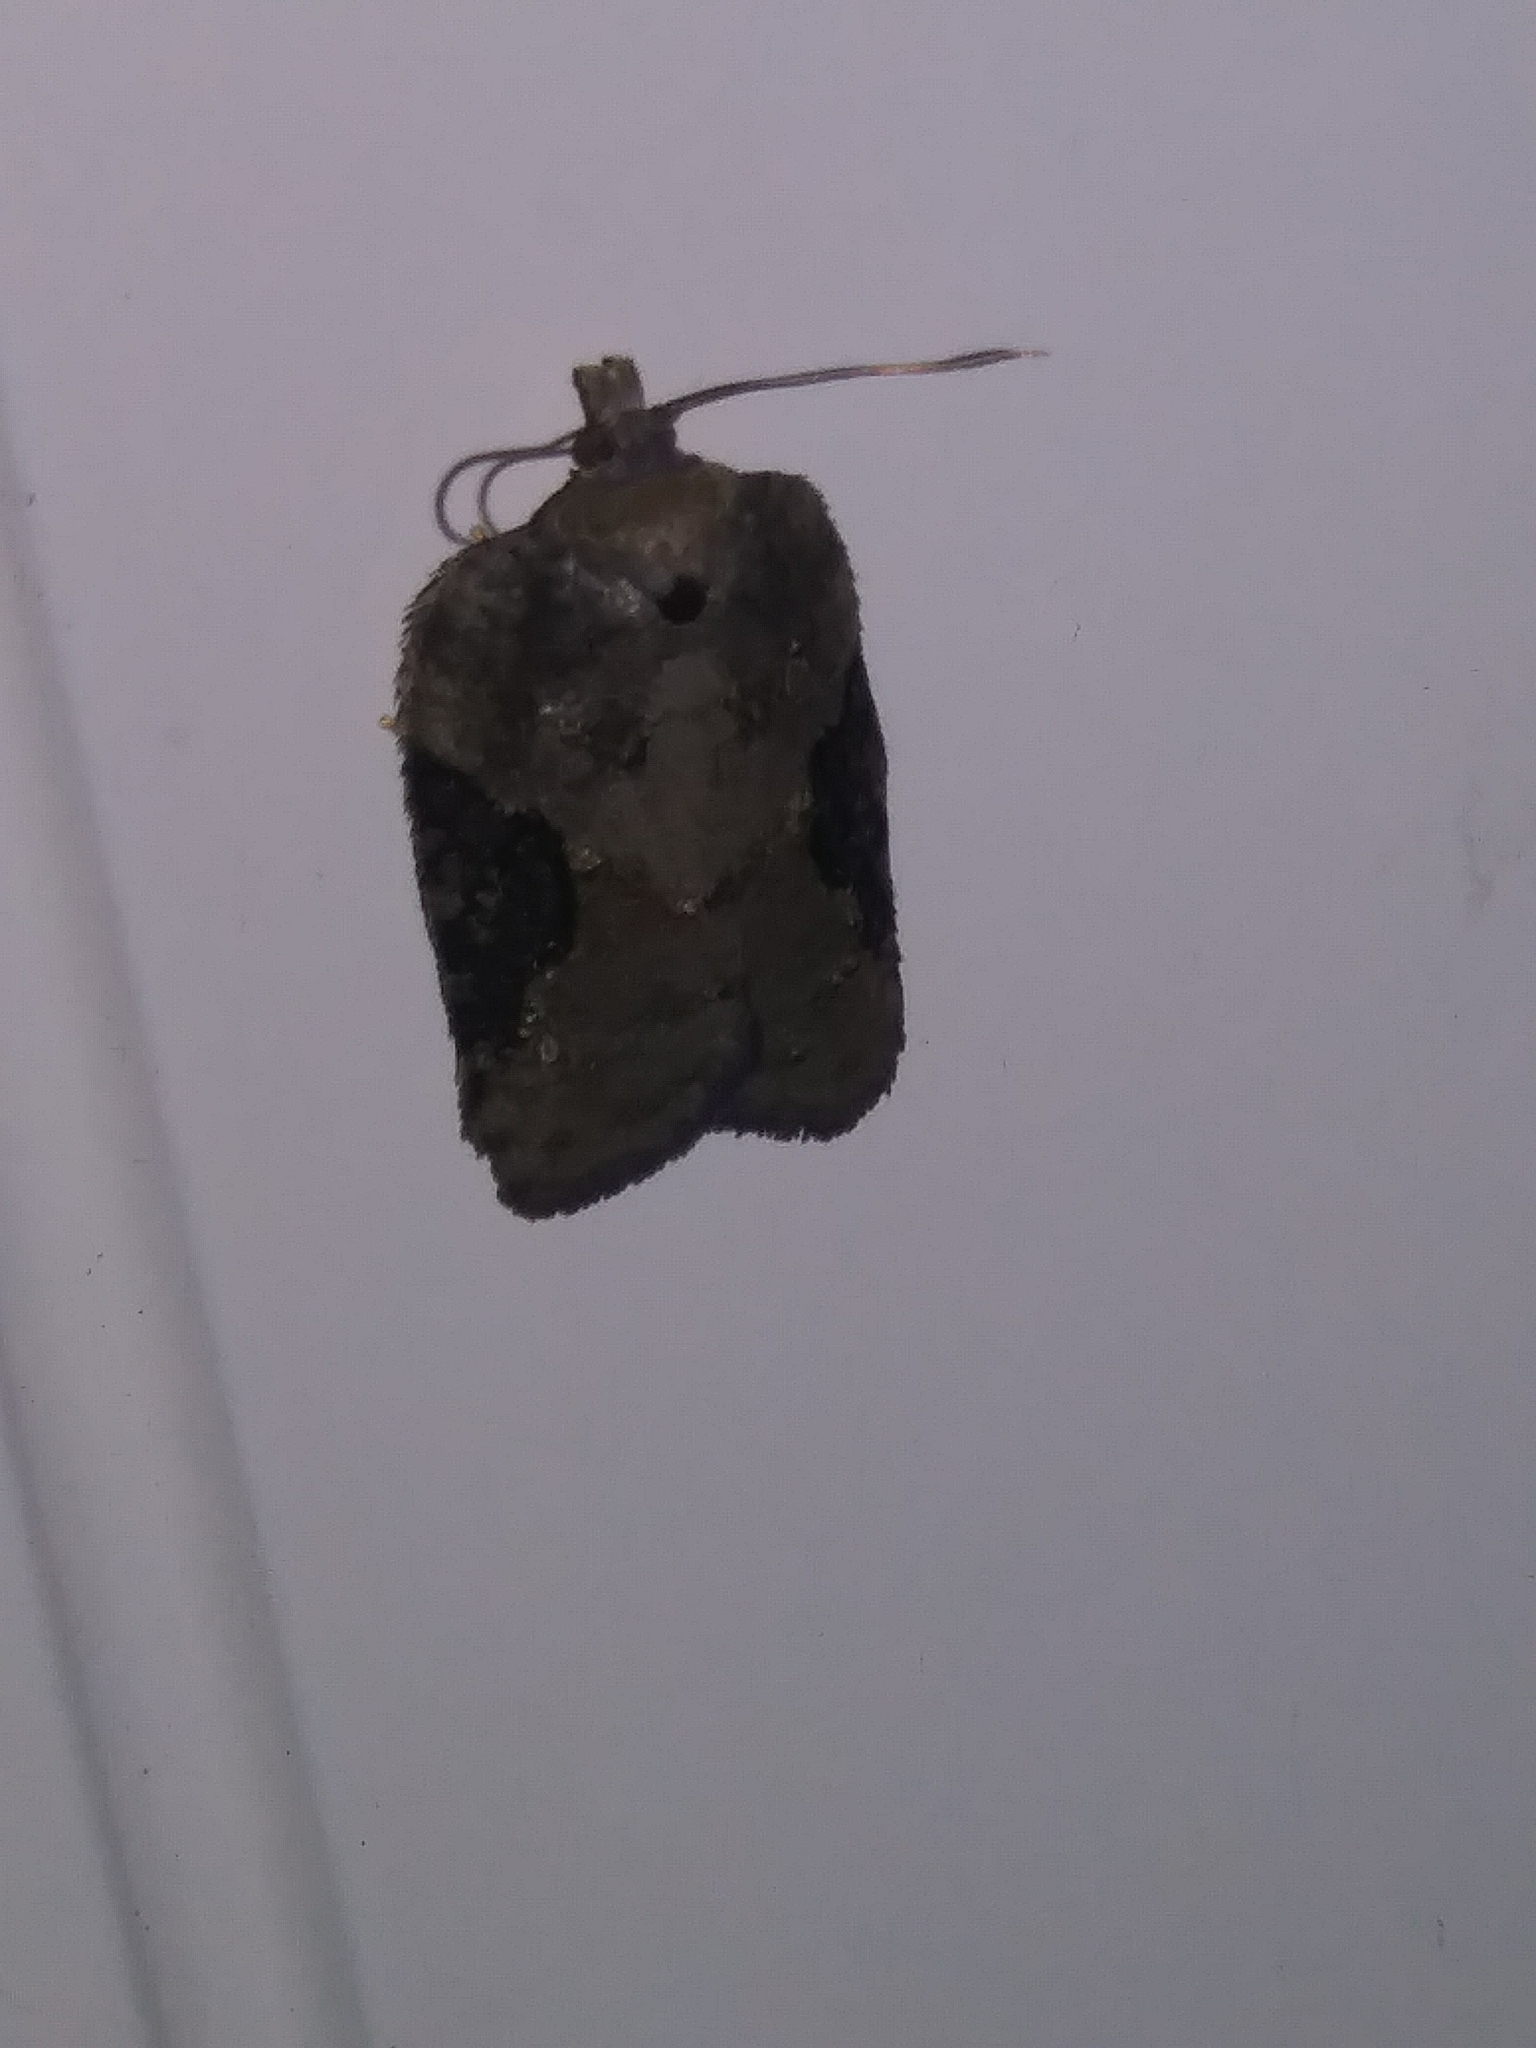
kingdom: Animalia
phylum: Arthropoda
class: Insecta
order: Lepidoptera
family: Tortricidae
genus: Acleris
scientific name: Acleris chalybeana
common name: Lesser maple leafroller
